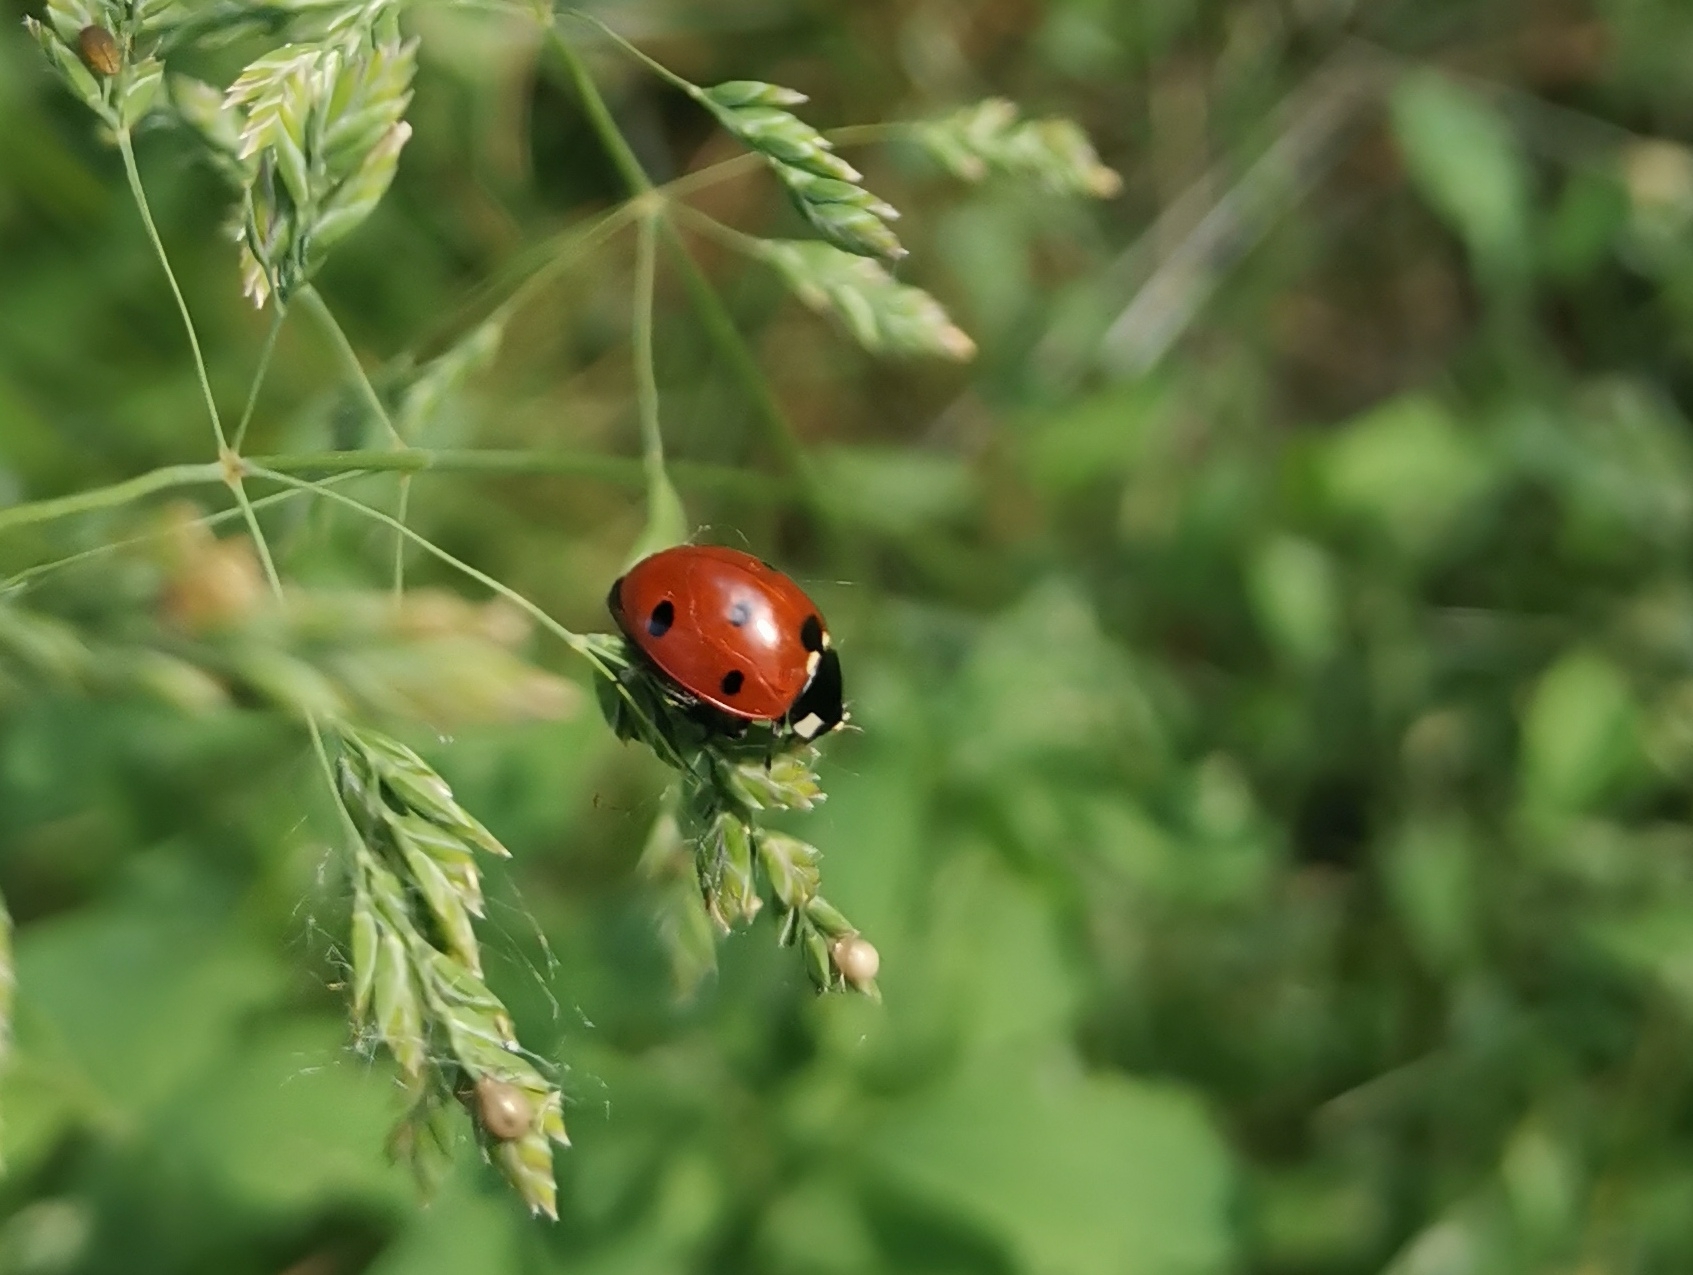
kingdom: Animalia
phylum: Arthropoda
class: Insecta
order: Coleoptera
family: Coccinellidae
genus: Coccinella
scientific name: Coccinella septempunctata
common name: Sevenspotted lady beetle
